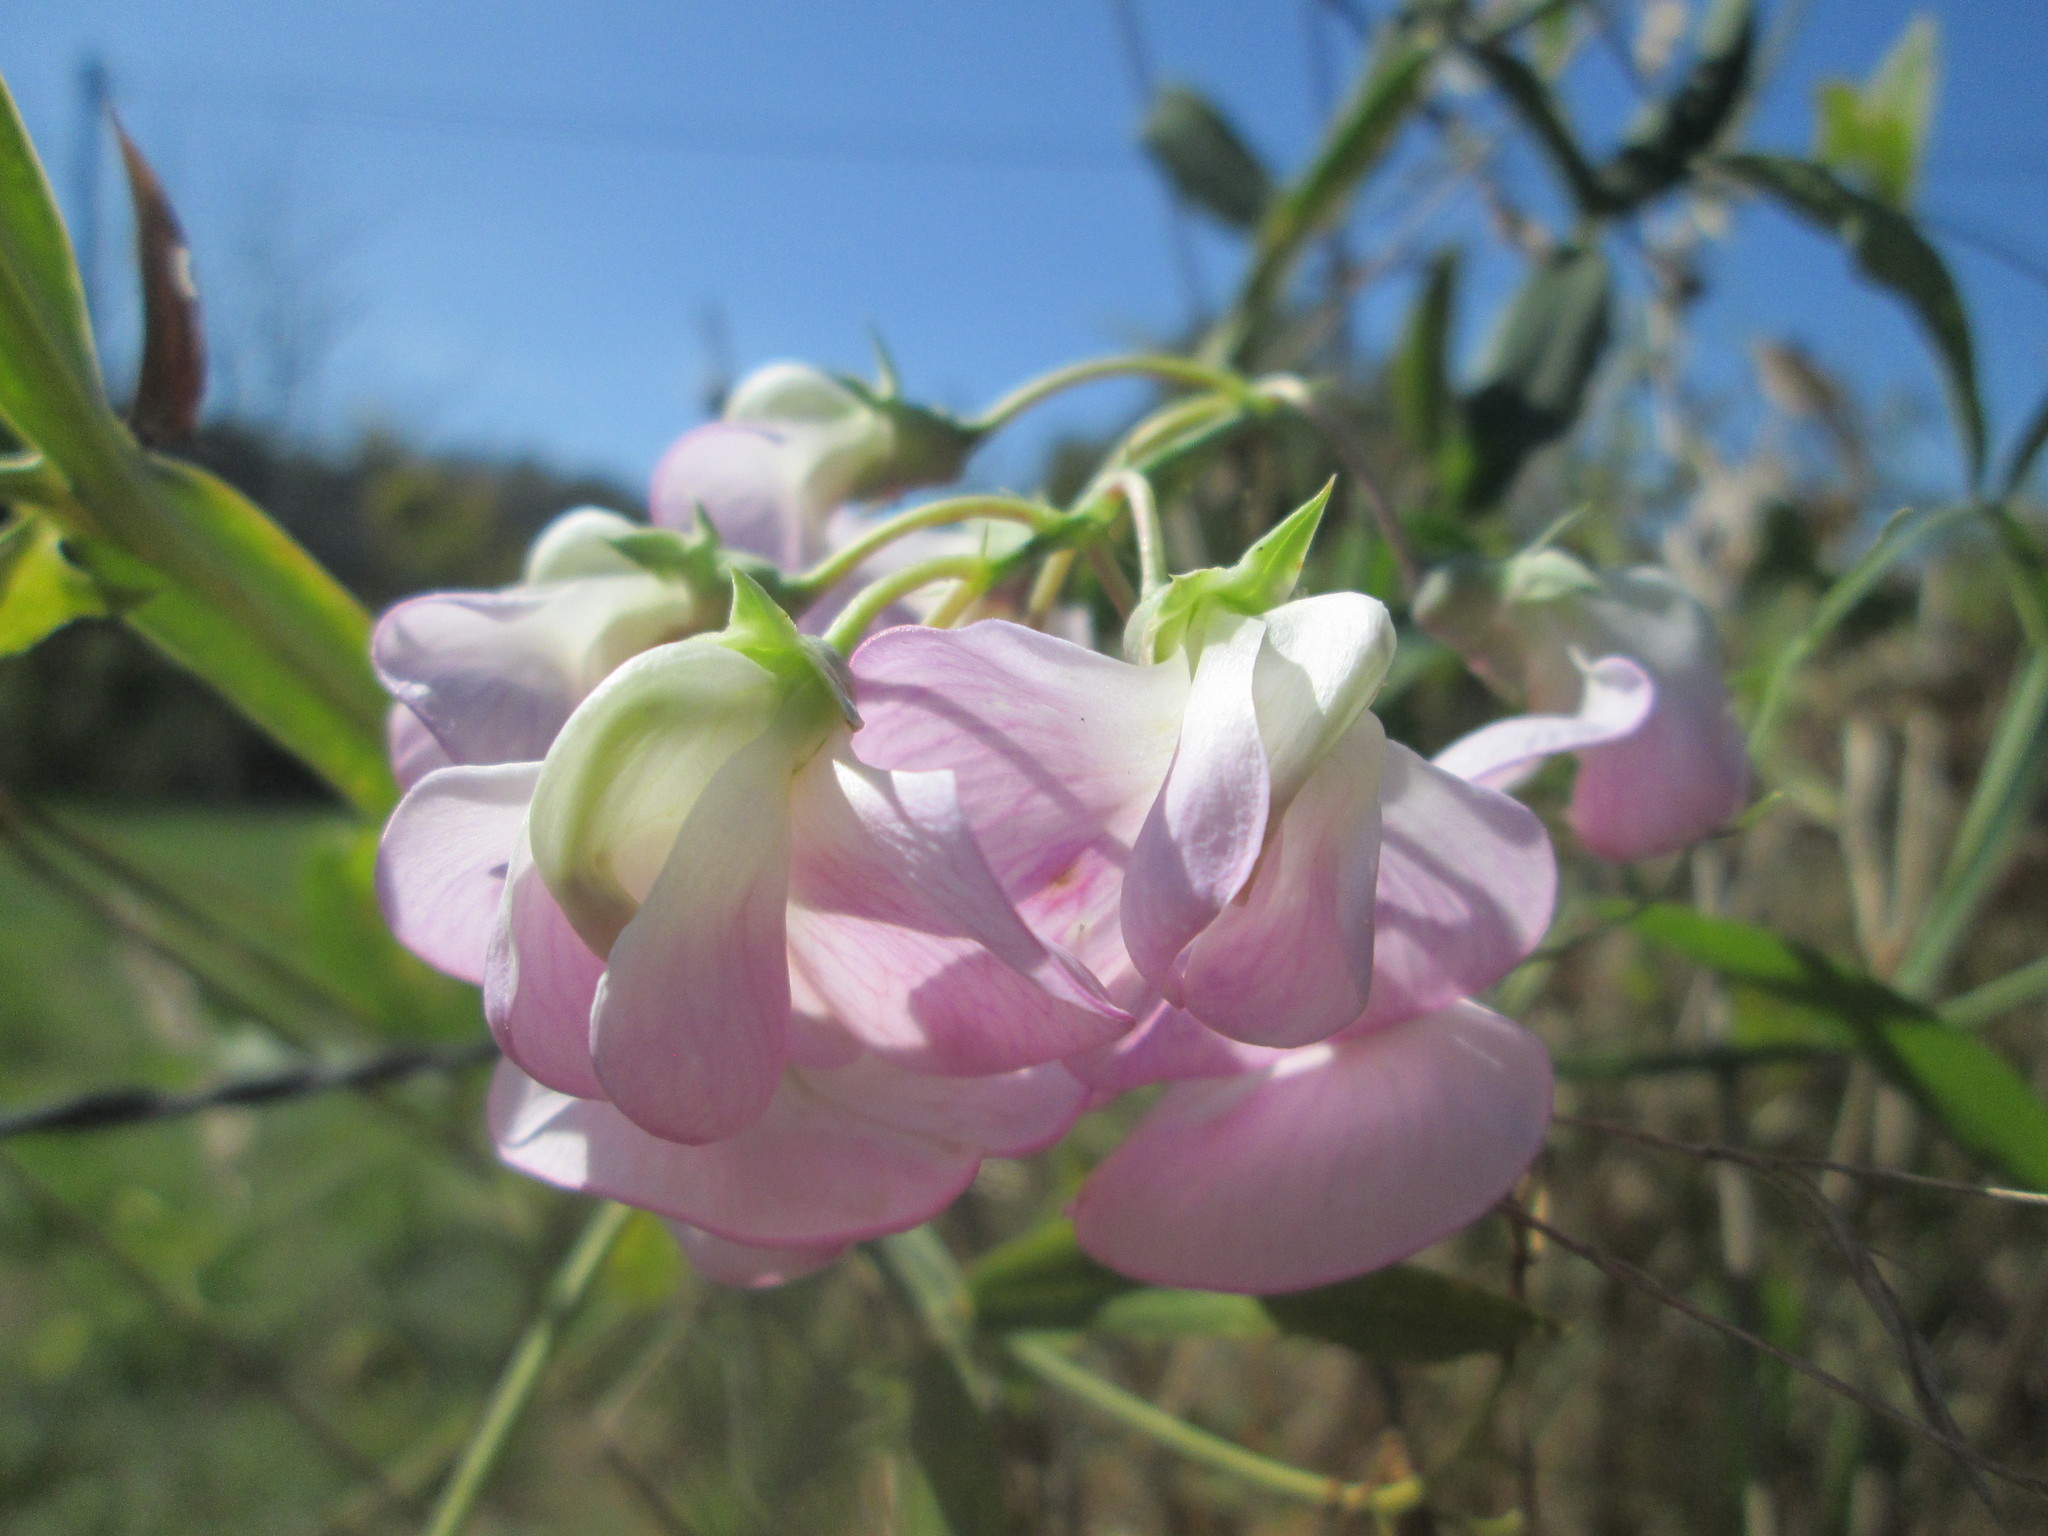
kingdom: Plantae
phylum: Tracheophyta
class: Magnoliopsida
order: Fabales
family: Fabaceae
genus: Lathyrus
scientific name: Lathyrus latifolius
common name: Perennial pea
